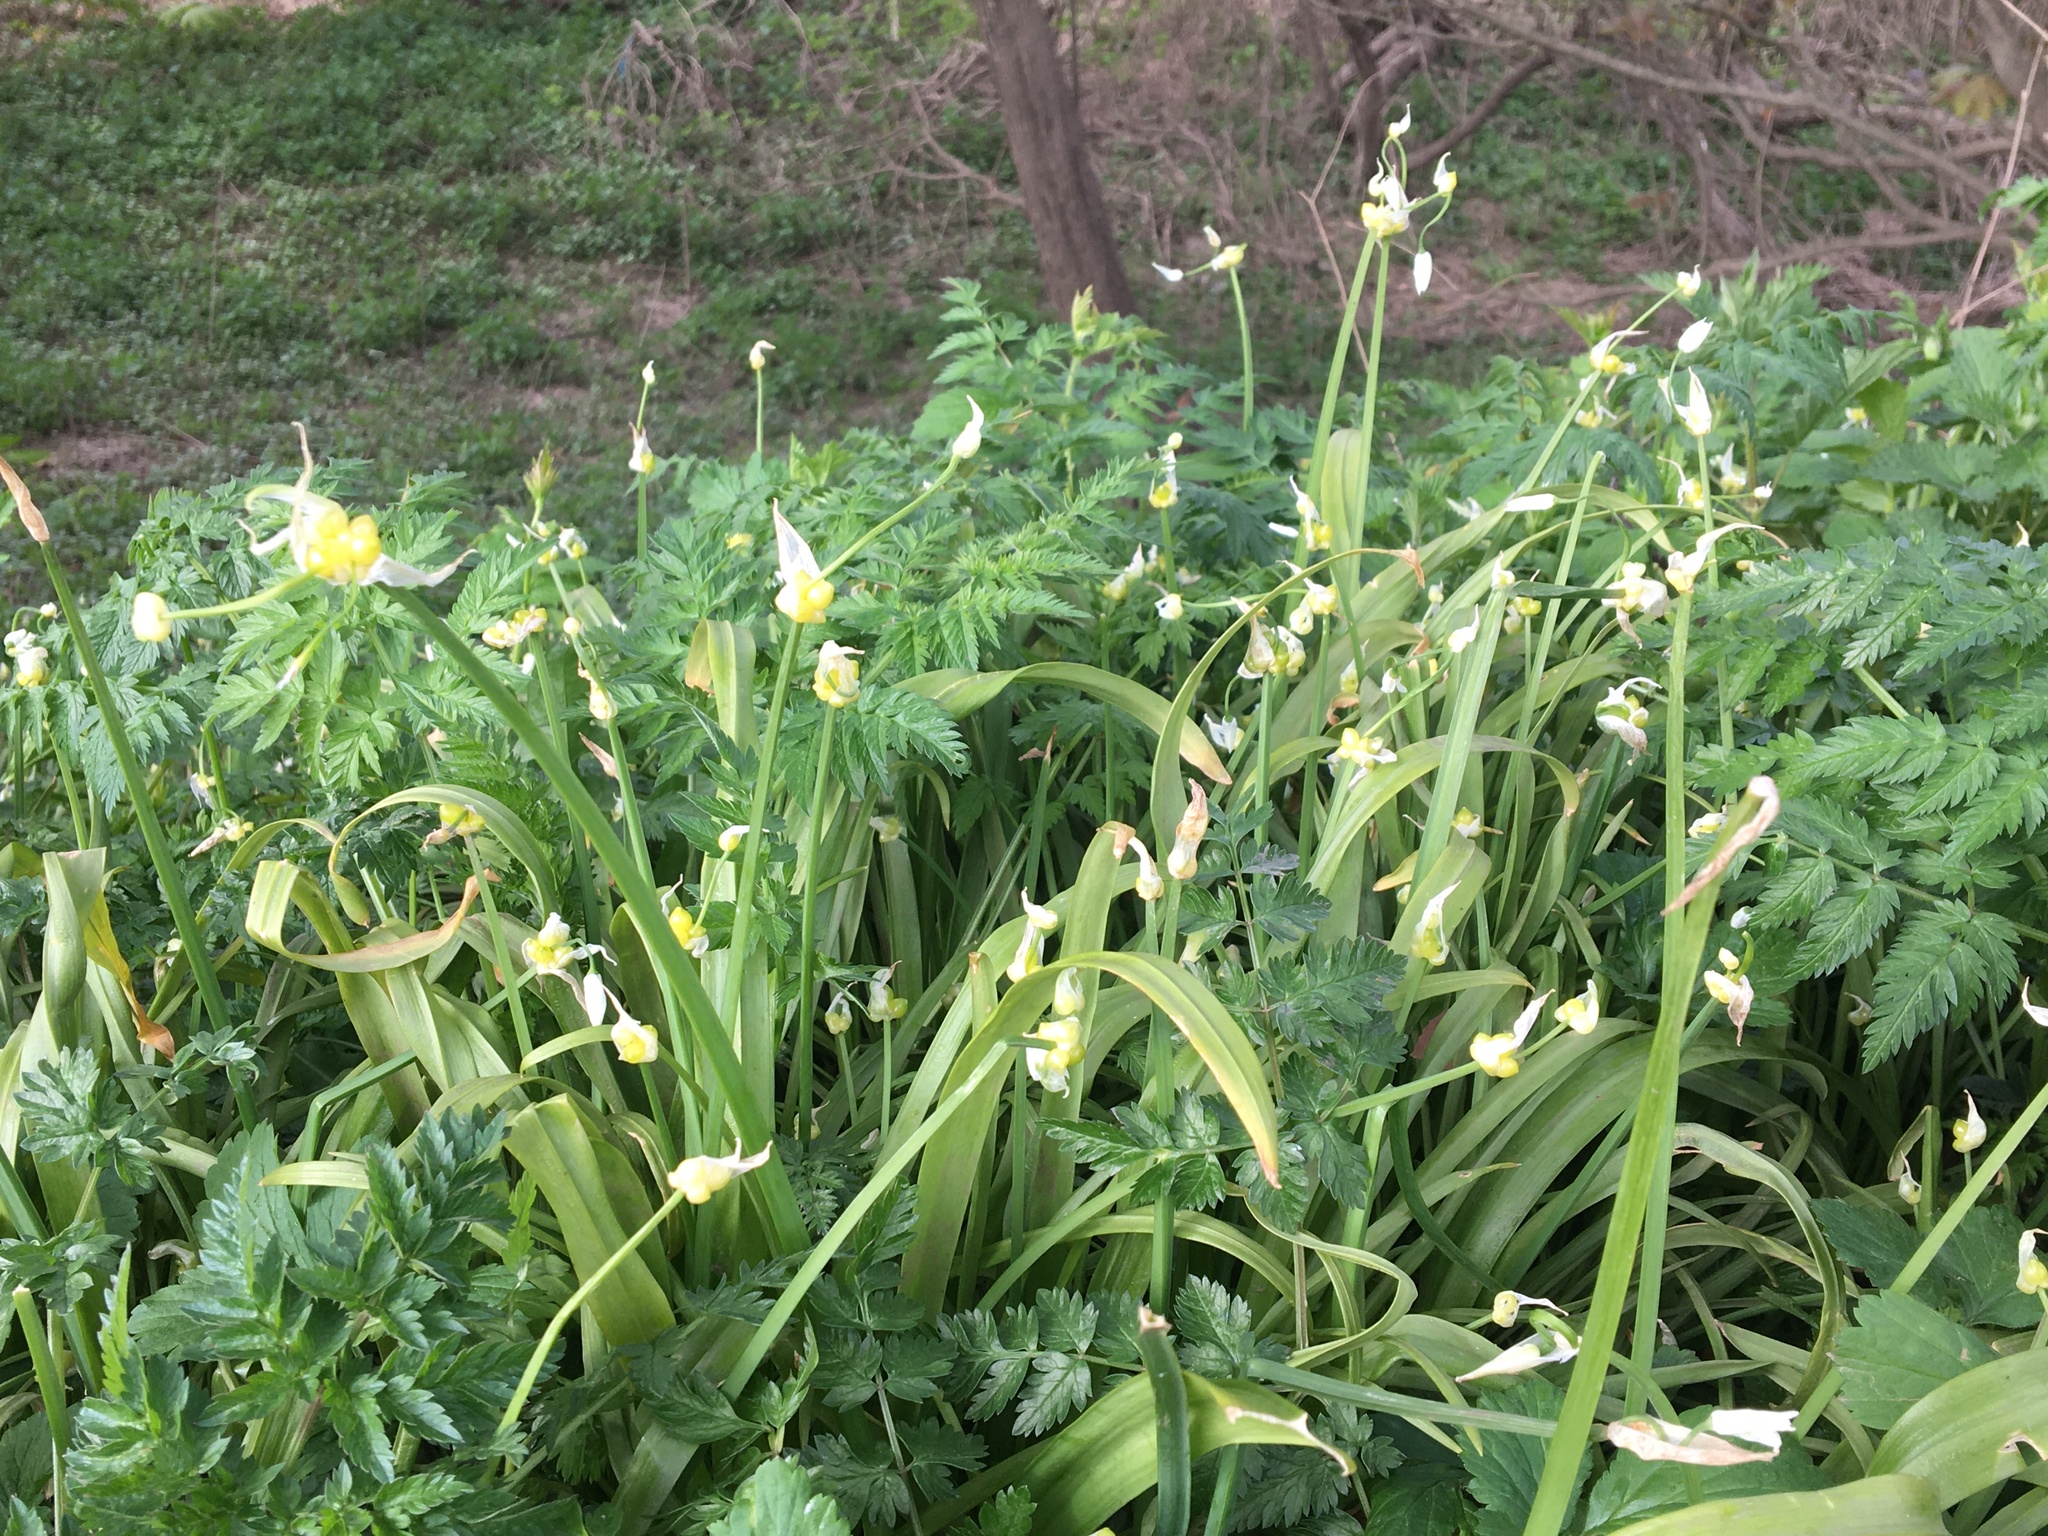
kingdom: Plantae
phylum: Tracheophyta
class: Liliopsida
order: Asparagales
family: Amaryllidaceae
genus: Allium
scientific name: Allium paradoxum
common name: Few-flowered garlic
